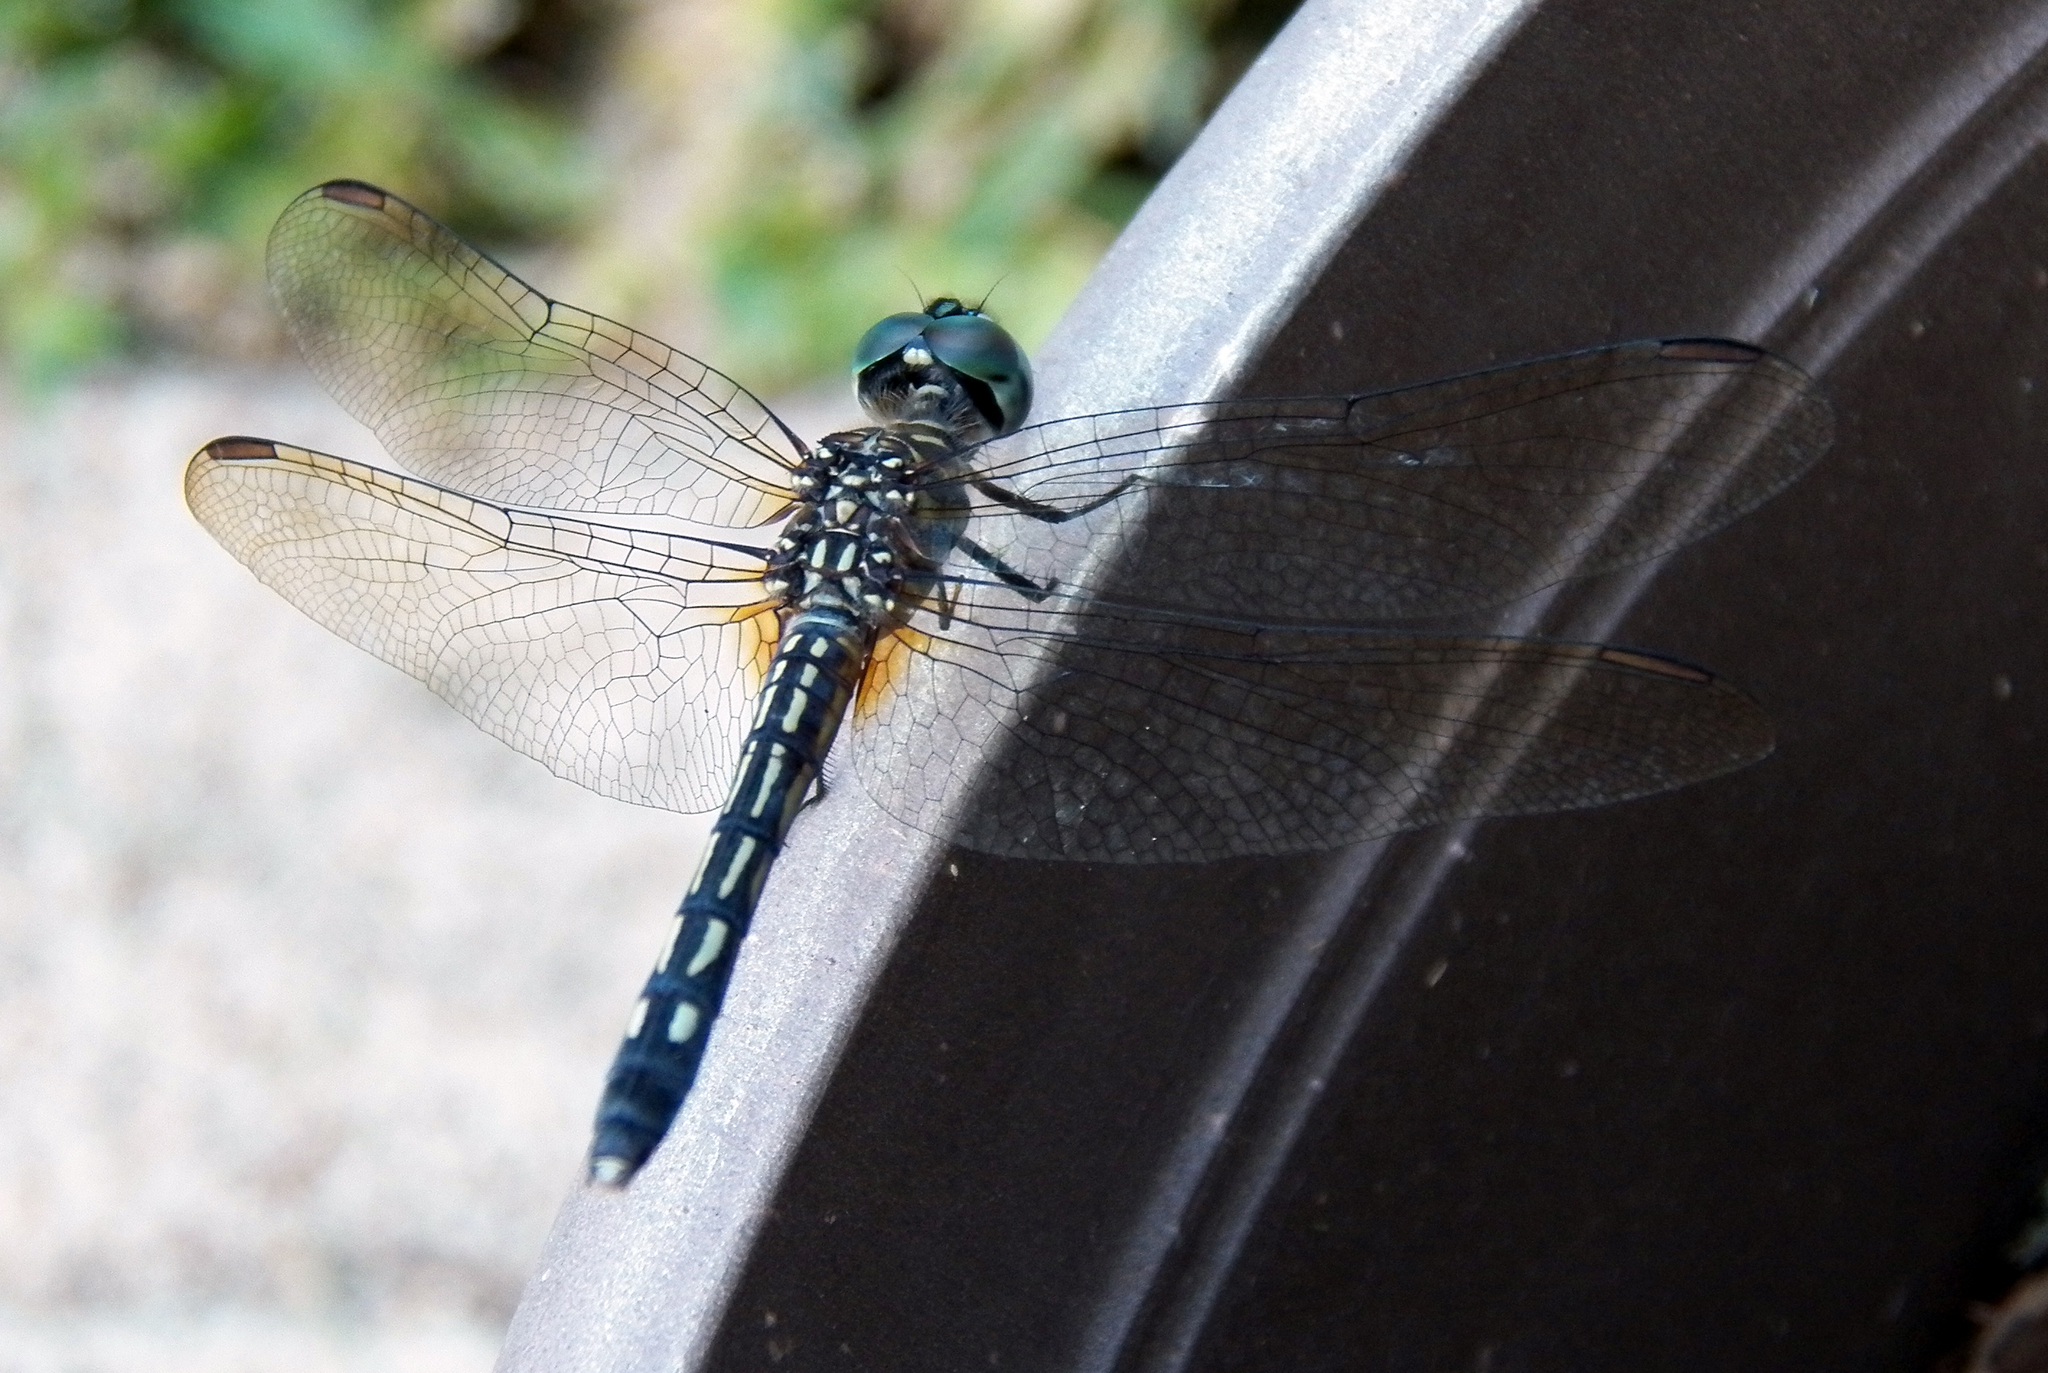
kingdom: Animalia
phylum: Arthropoda
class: Insecta
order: Odonata
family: Libellulidae
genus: Pachydiplax
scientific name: Pachydiplax longipennis
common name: Blue dasher
